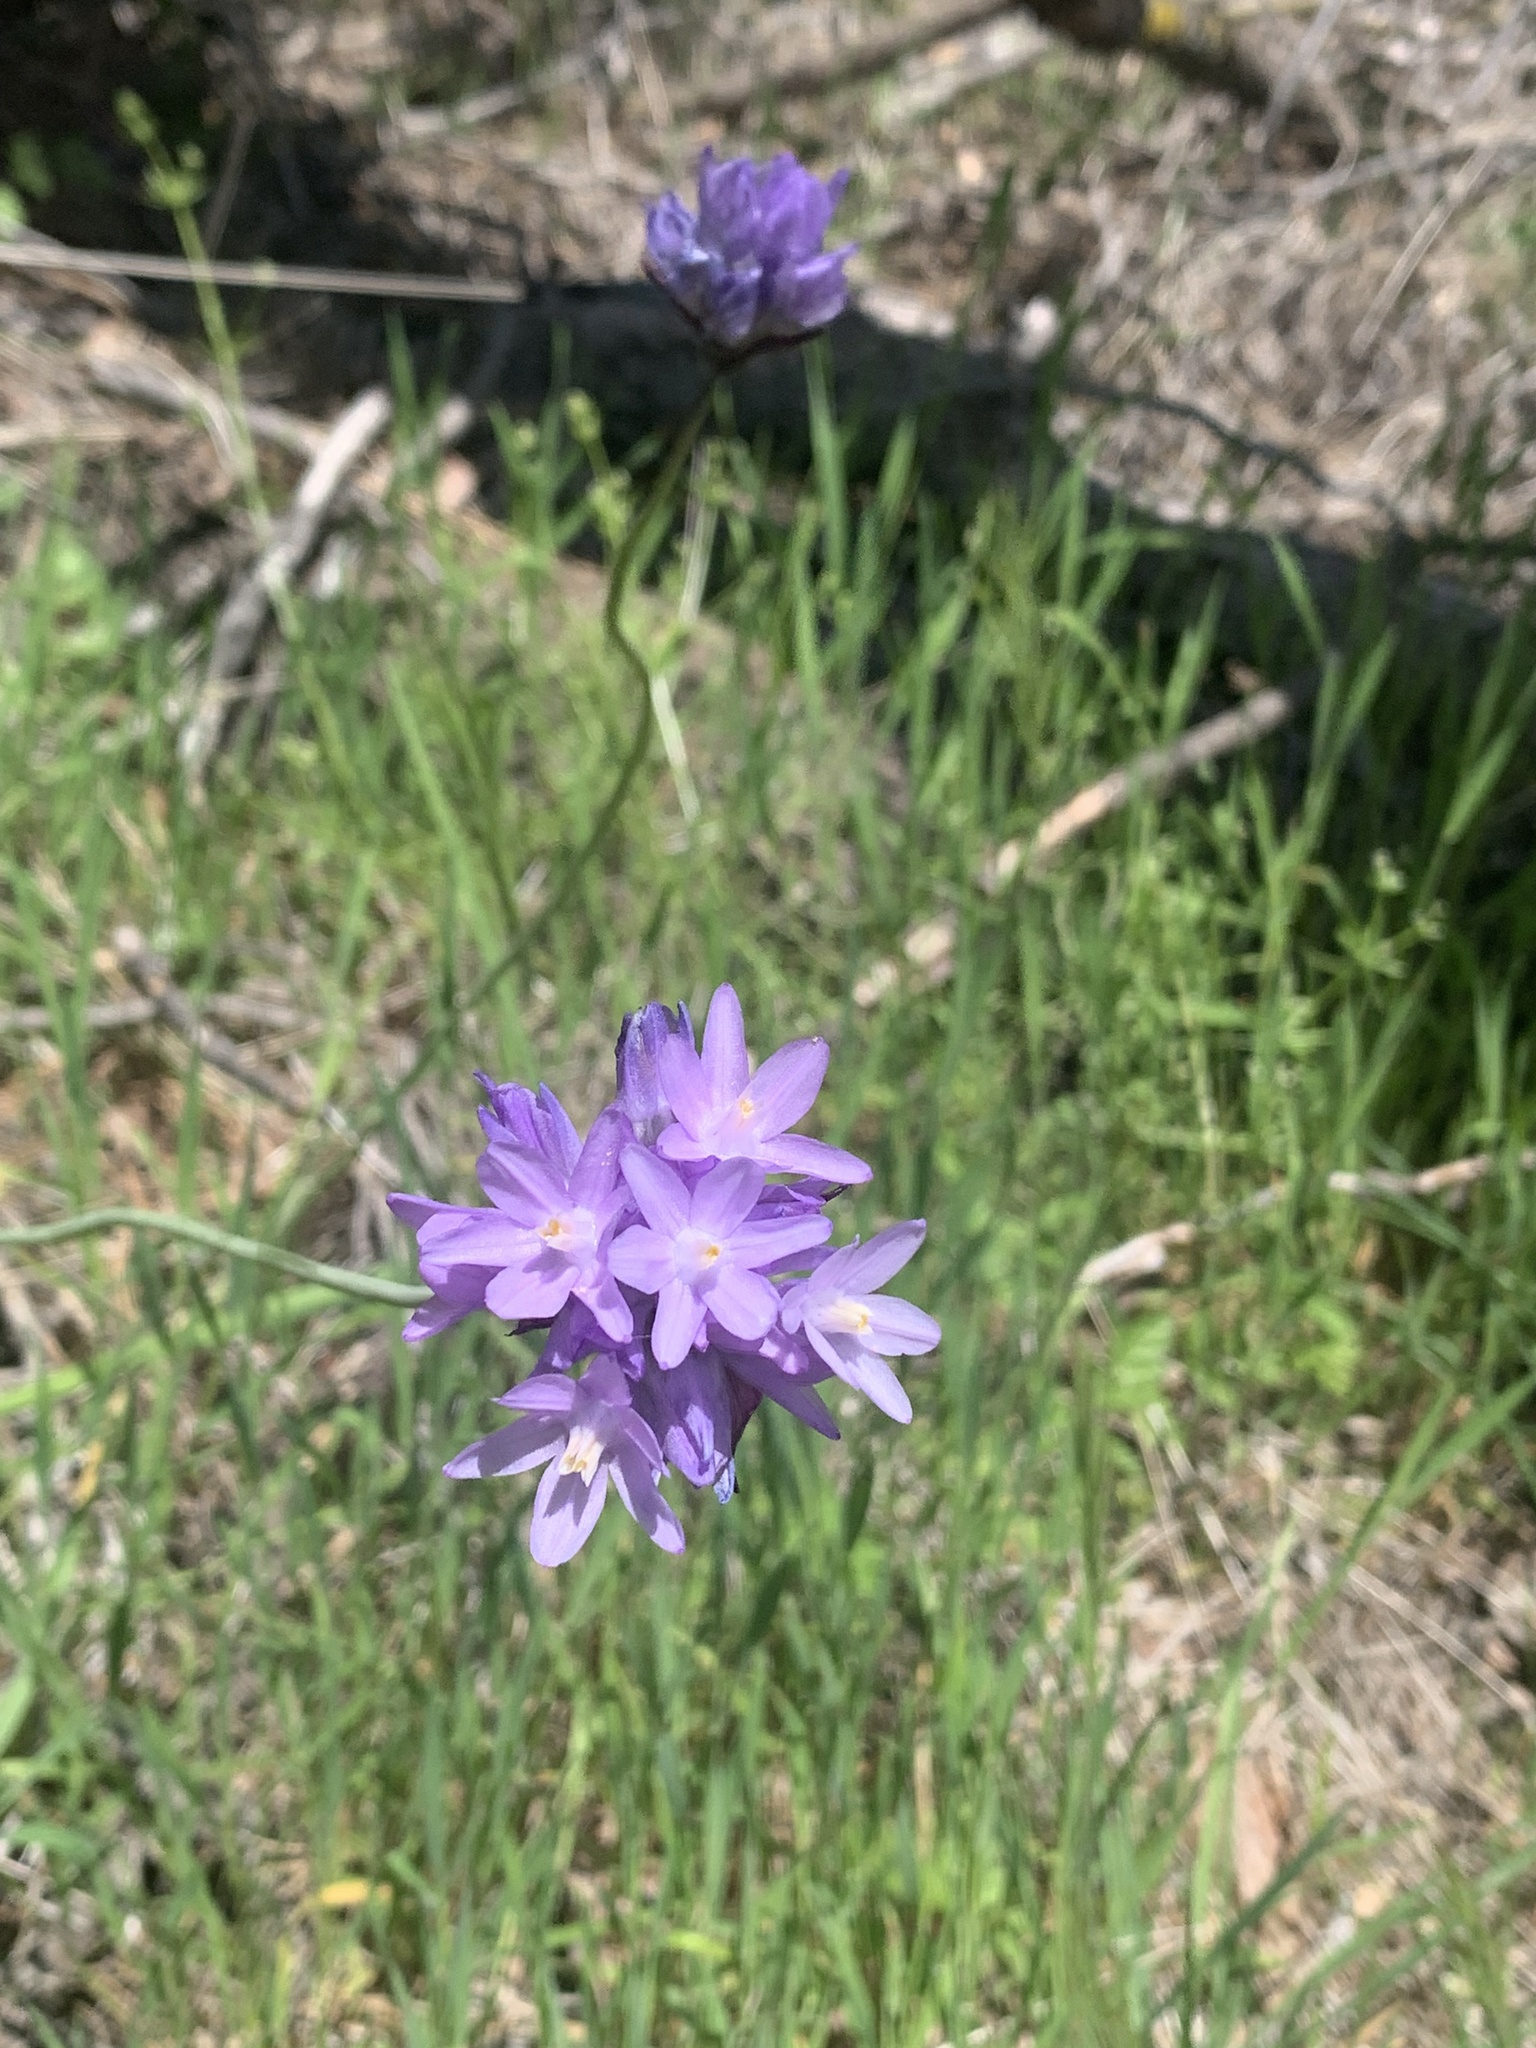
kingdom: Plantae
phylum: Tracheophyta
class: Liliopsida
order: Asparagales
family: Asparagaceae
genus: Dipterostemon
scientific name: Dipterostemon capitatus
